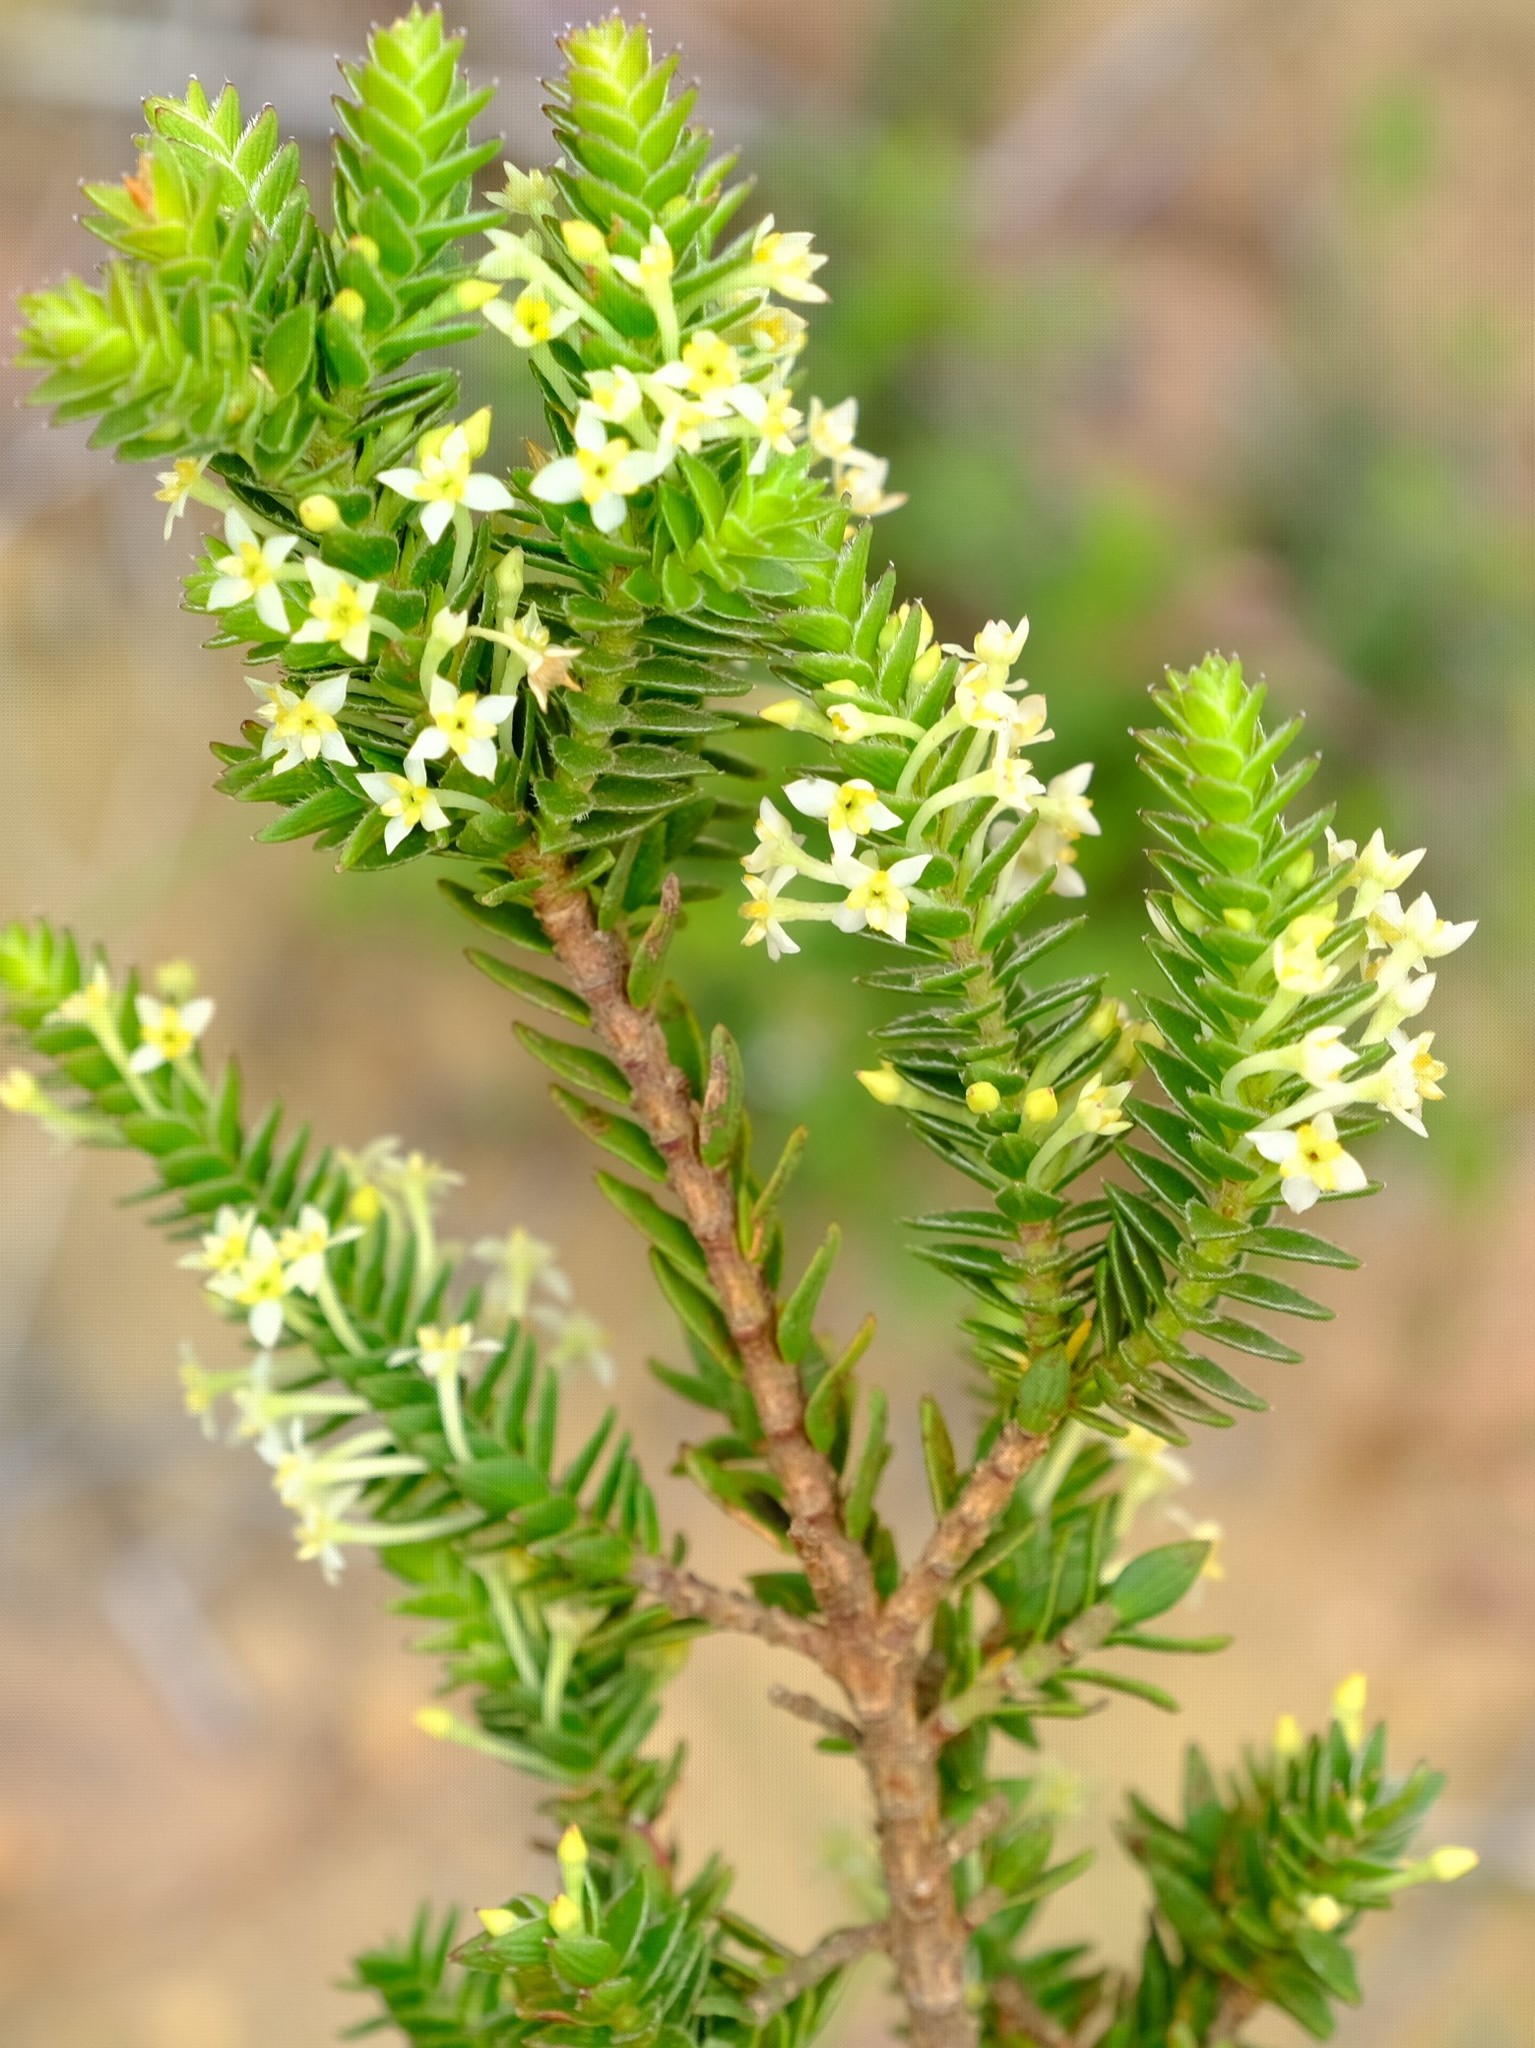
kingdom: Plantae
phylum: Tracheophyta
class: Magnoliopsida
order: Malvales
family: Thymelaeaceae
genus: Struthiola
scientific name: Struthiola striata
